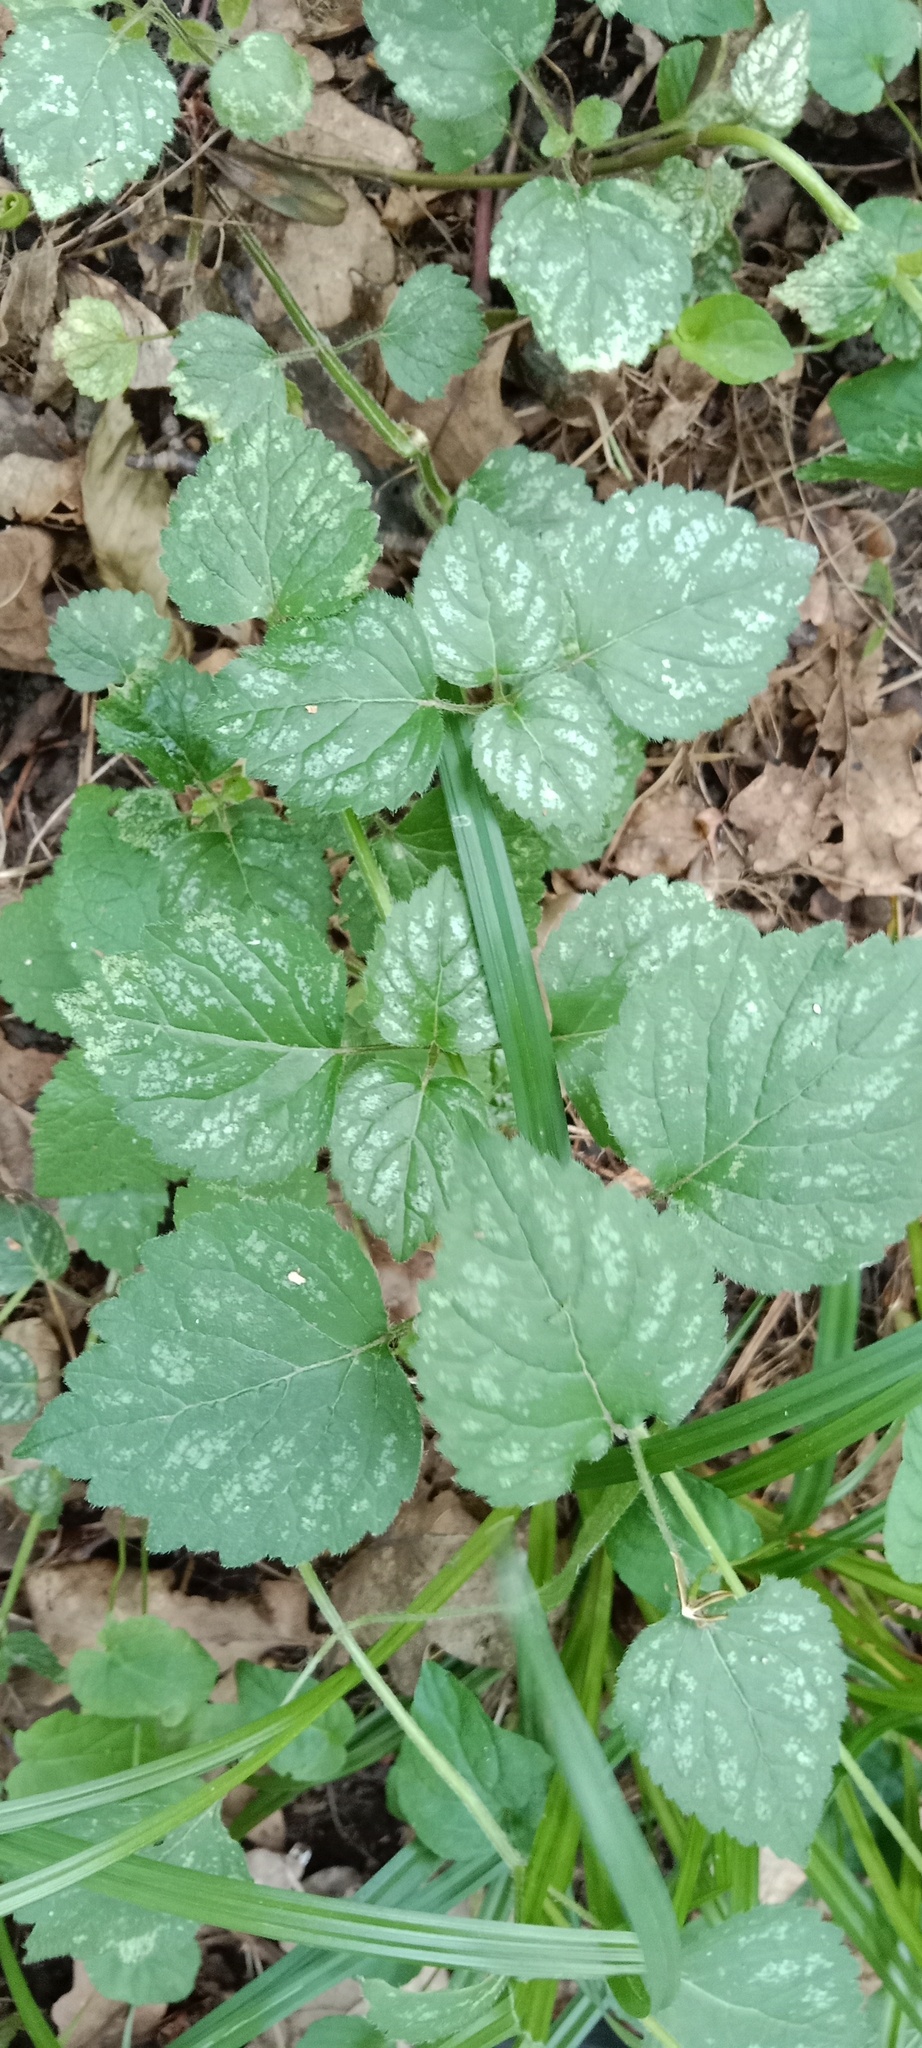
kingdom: Plantae
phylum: Tracheophyta
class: Magnoliopsida
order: Lamiales
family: Lamiaceae
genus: Lamium
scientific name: Lamium galeobdolon
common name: Yellow archangel
